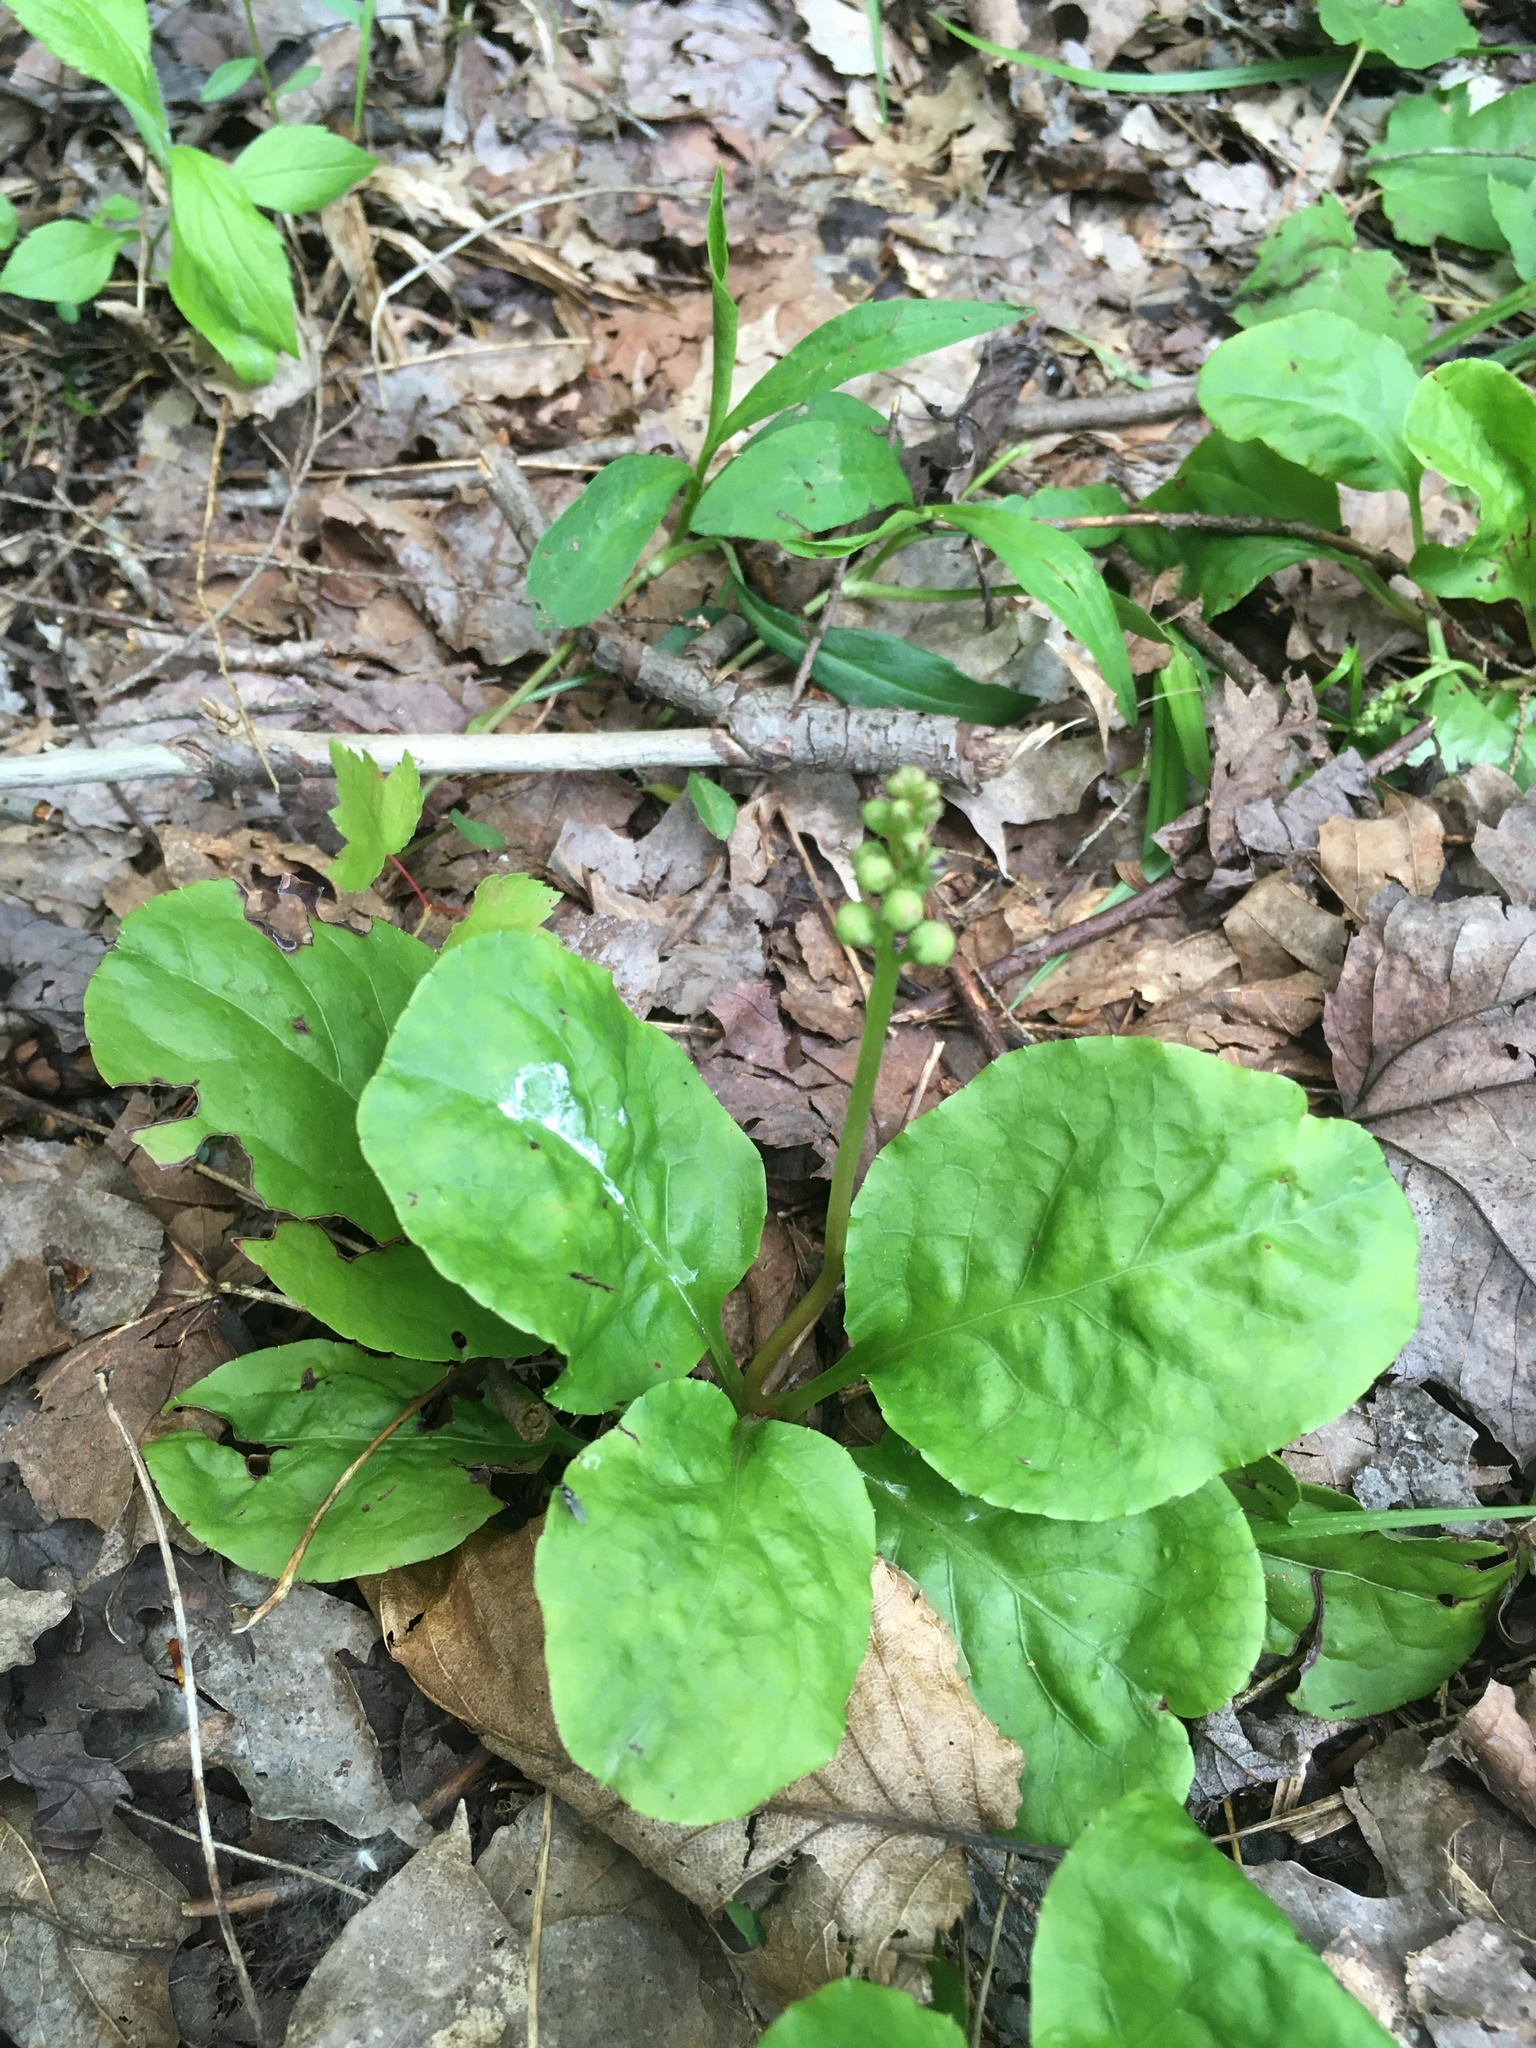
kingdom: Plantae
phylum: Tracheophyta
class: Magnoliopsida
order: Ericales
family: Ericaceae
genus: Pyrola
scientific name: Pyrola elliptica
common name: Shinleaf
